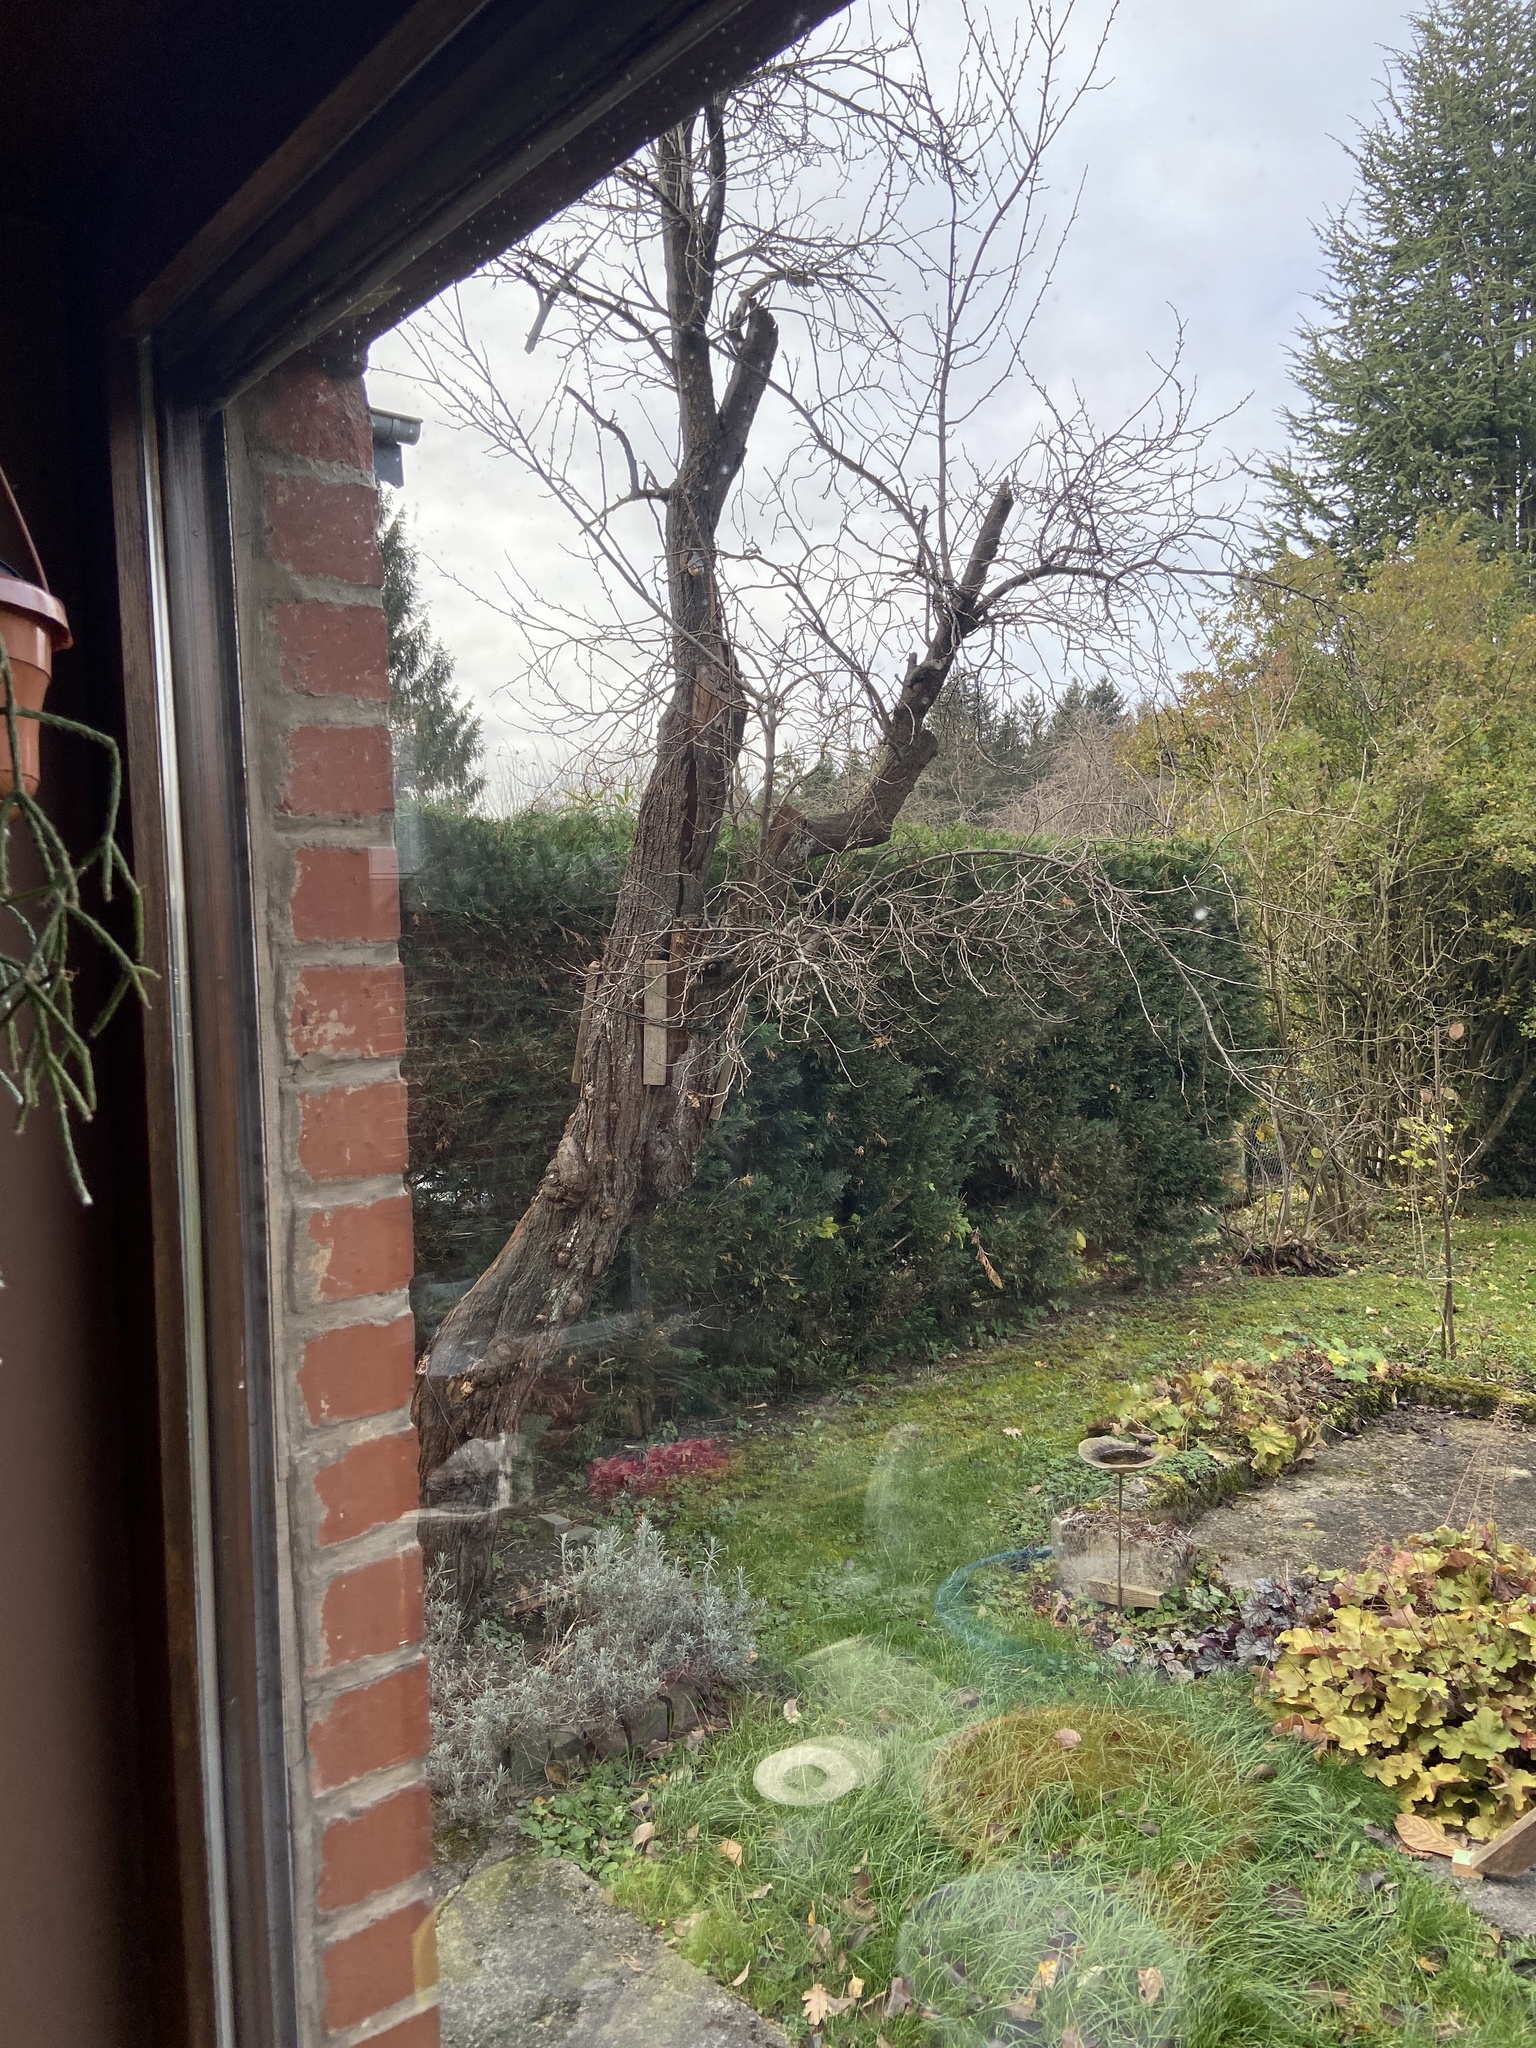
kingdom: Animalia
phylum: Chordata
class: Aves
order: Passeriformes
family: Sittidae
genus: Sitta
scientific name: Sitta europaea
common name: Eurasian nuthatch
